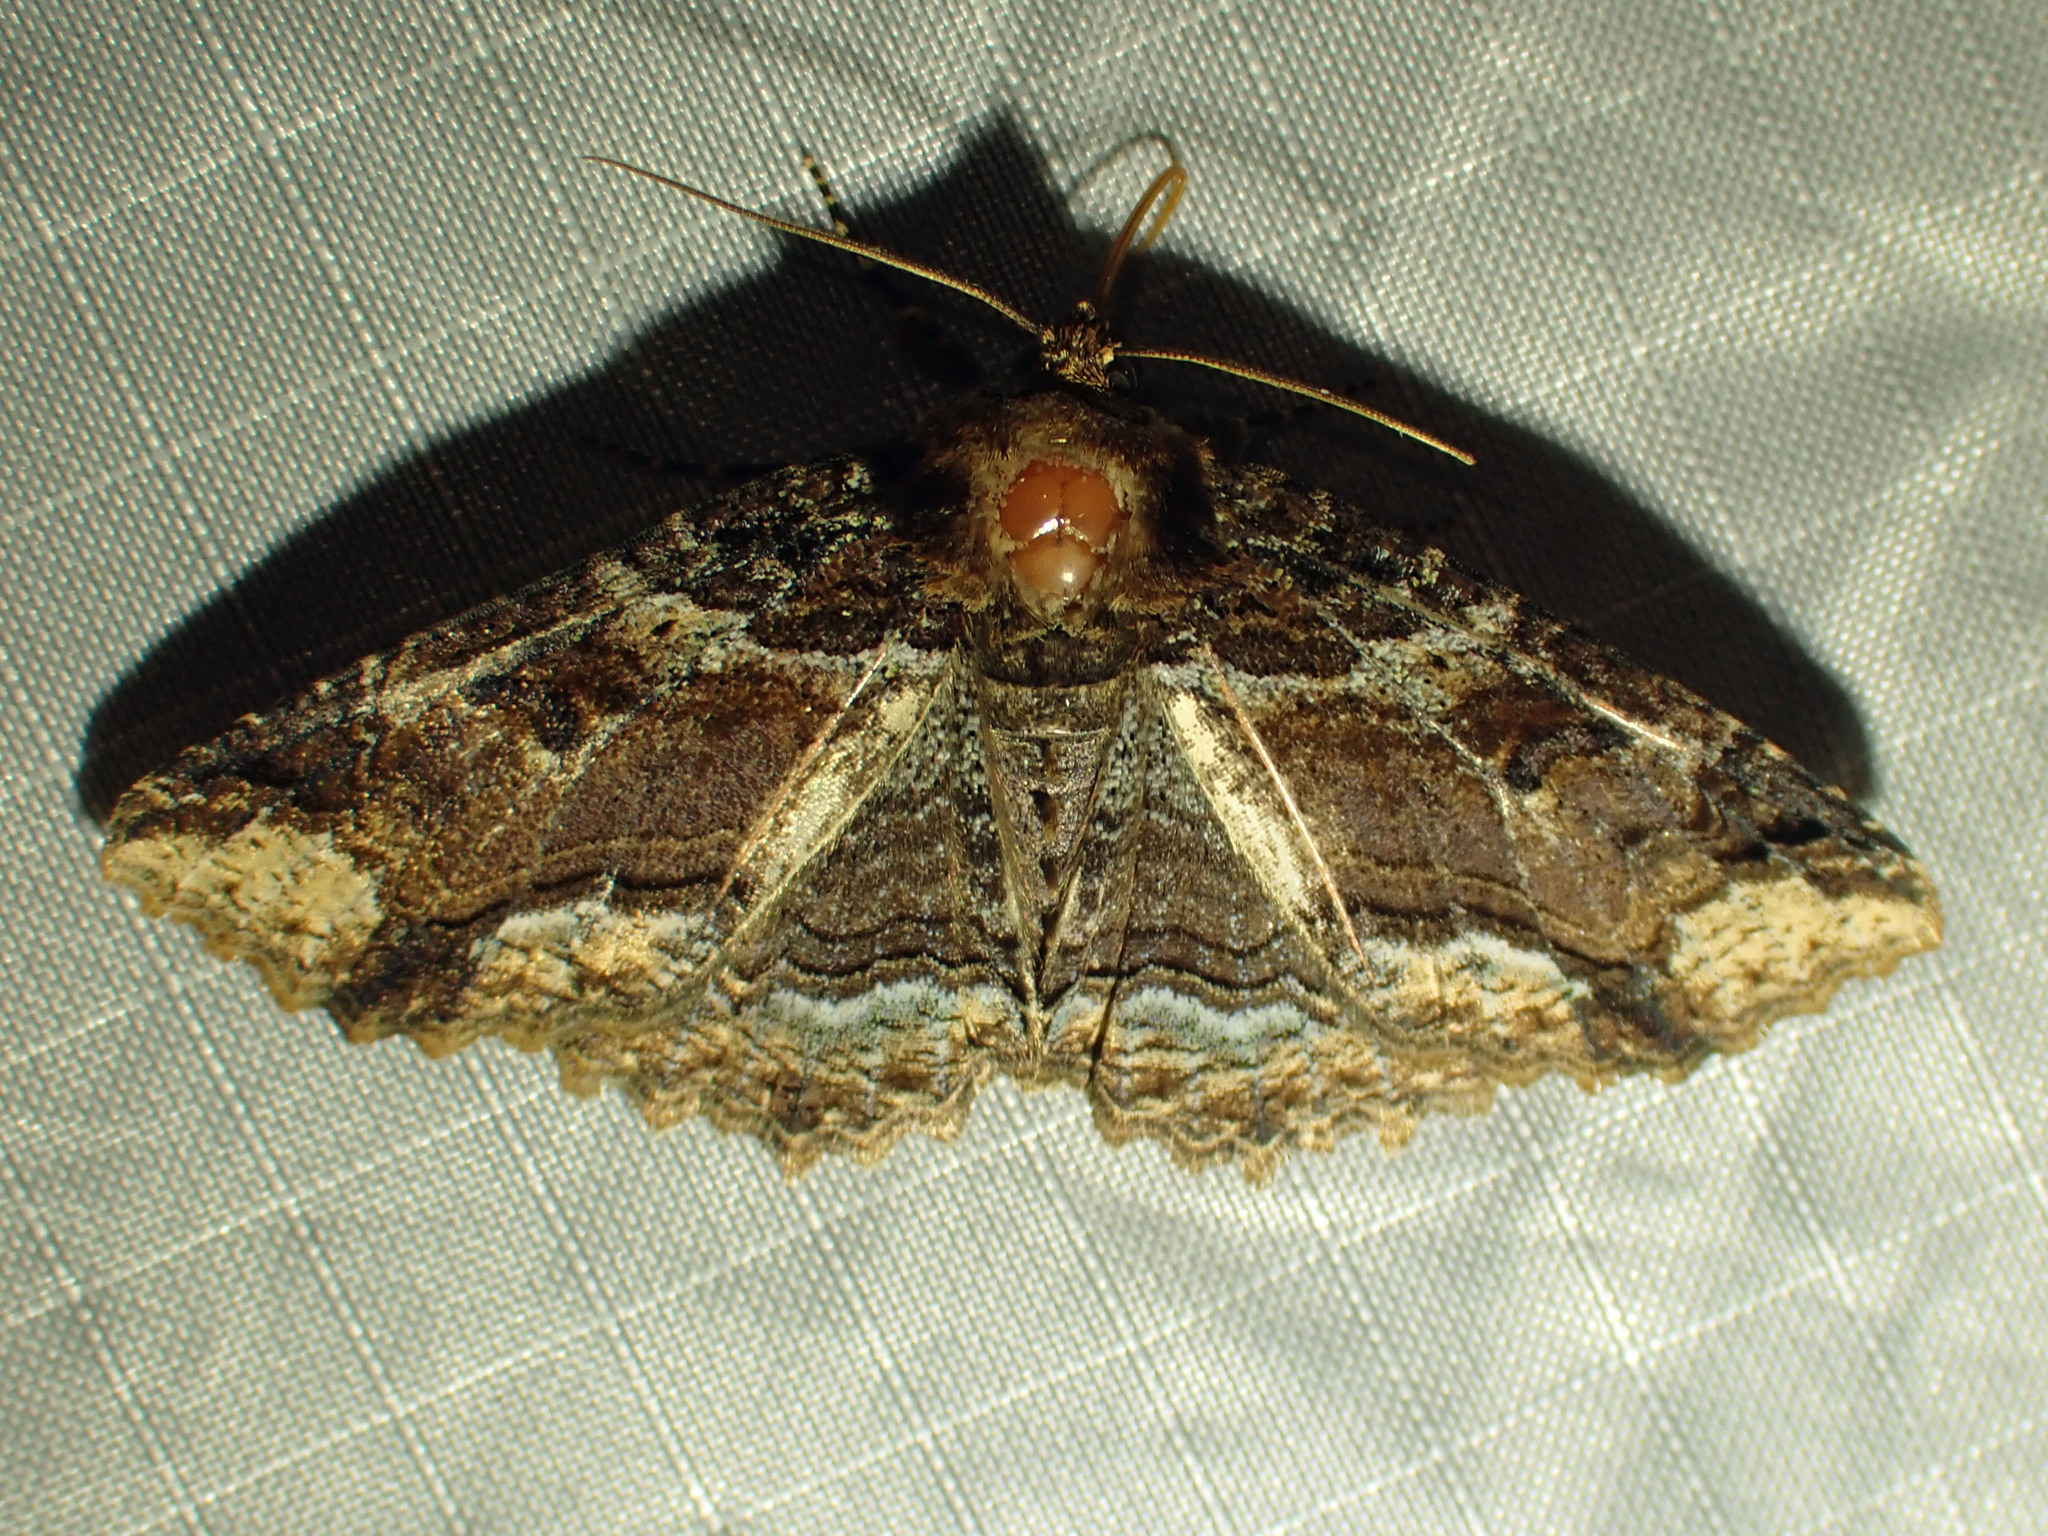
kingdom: Animalia
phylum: Arthropoda
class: Insecta
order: Lepidoptera
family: Erebidae
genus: Zale
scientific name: Zale minerea
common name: Colorful zale moth
